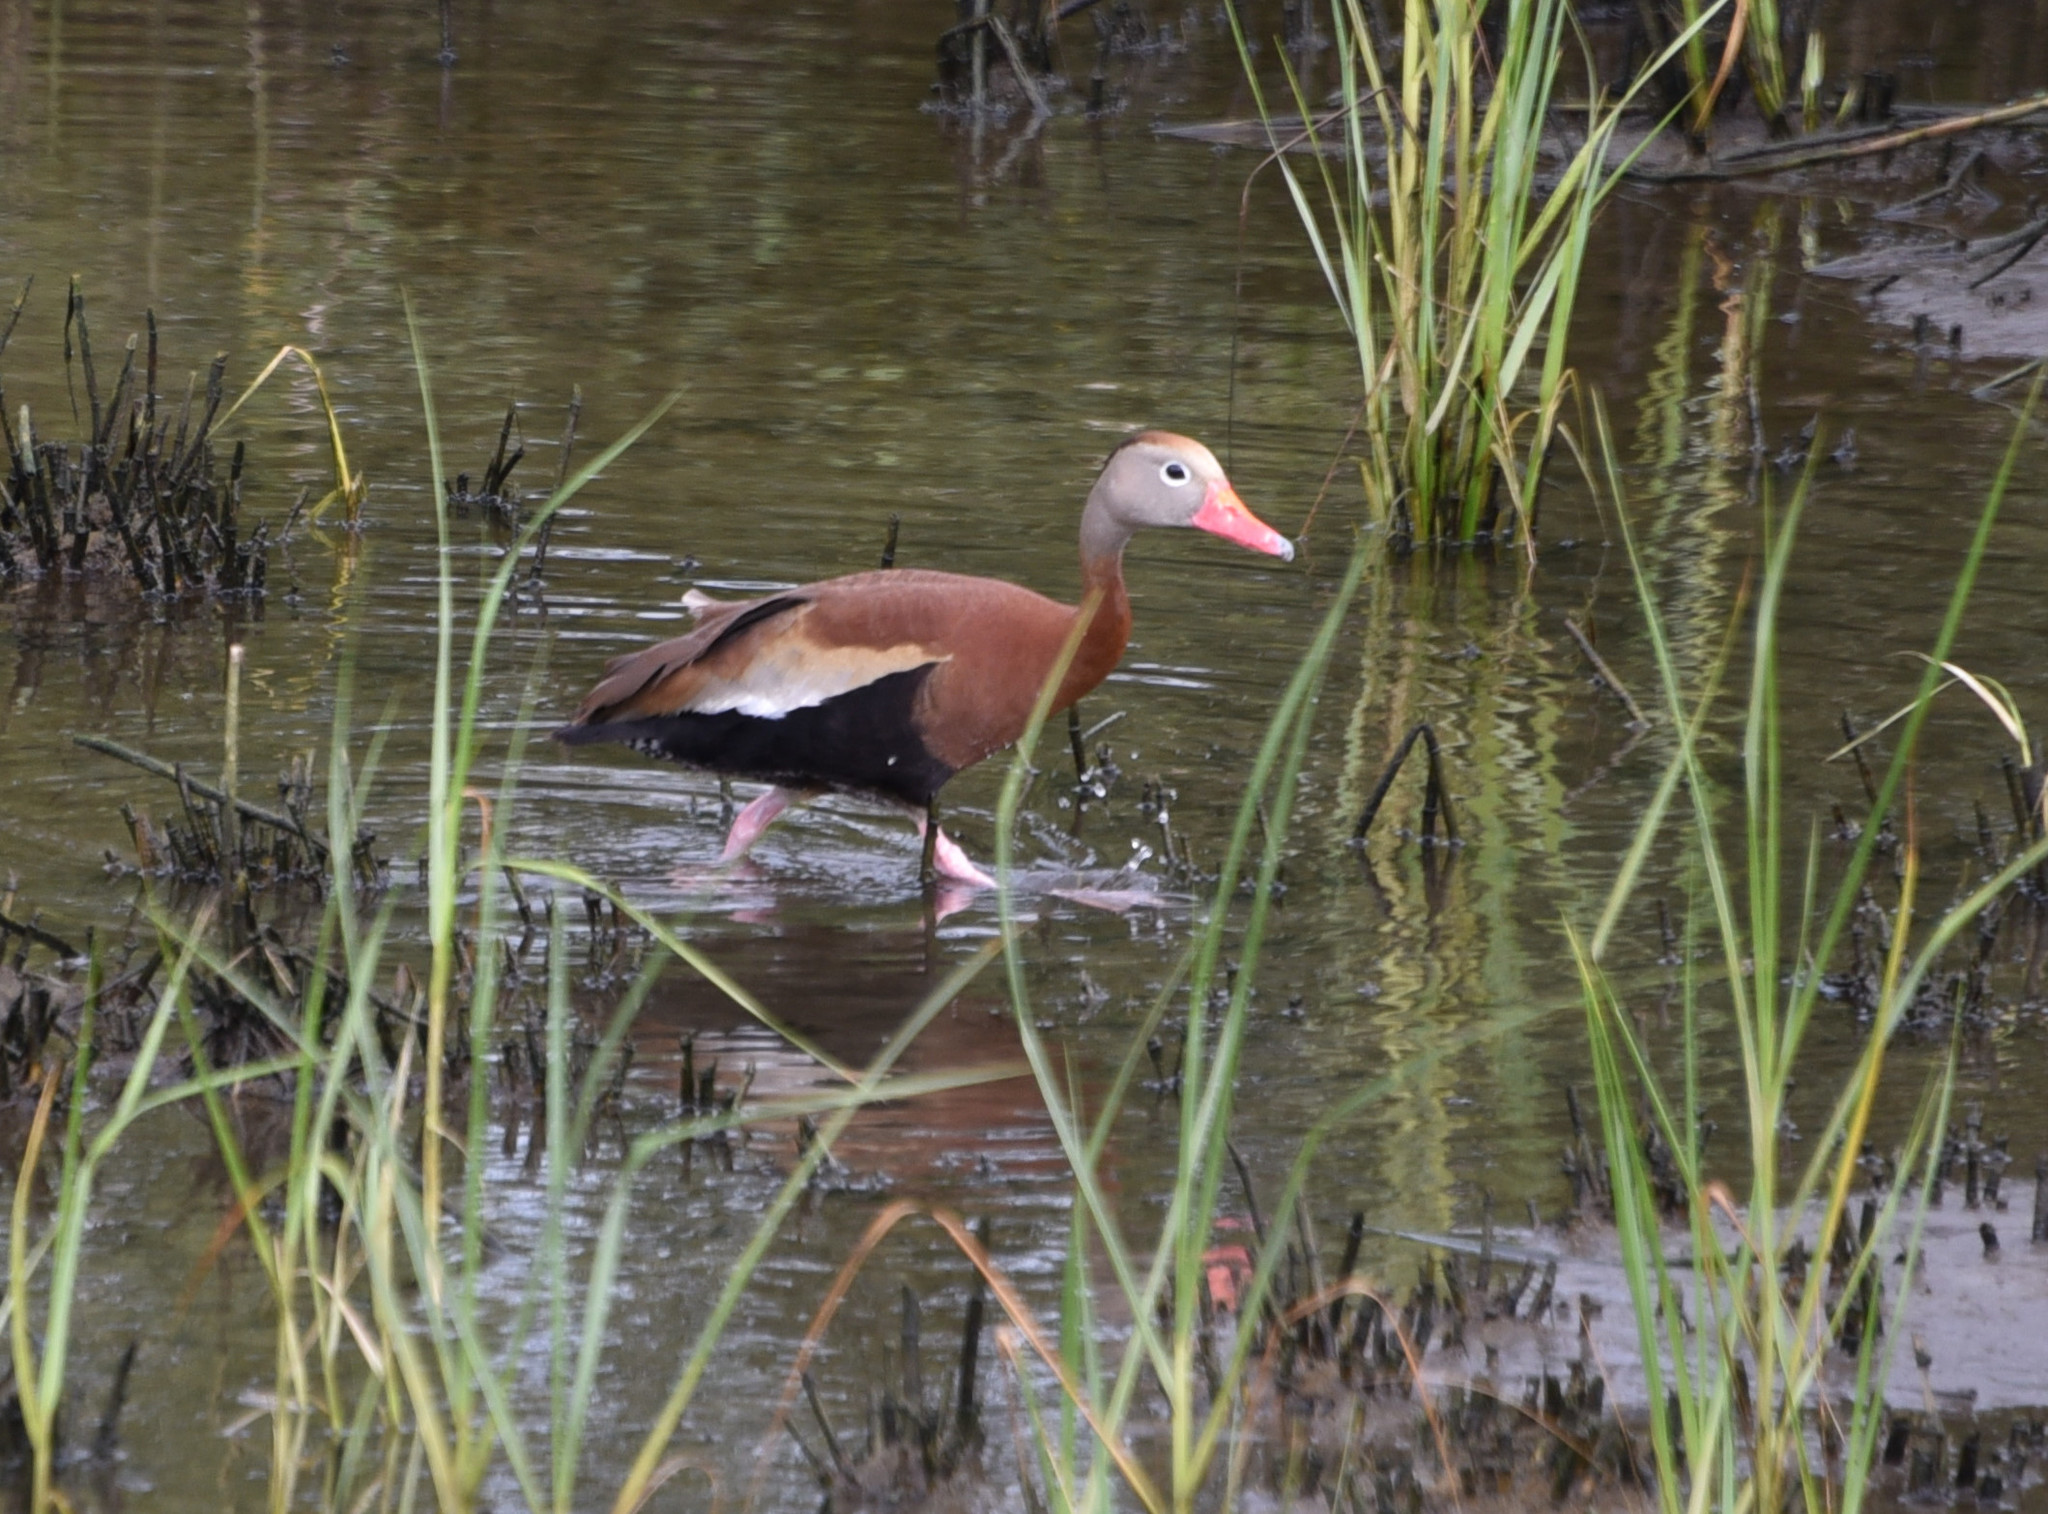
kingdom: Animalia
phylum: Chordata
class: Aves
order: Anseriformes
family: Anatidae
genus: Dendrocygna
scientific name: Dendrocygna autumnalis
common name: Black-bellied whistling duck
